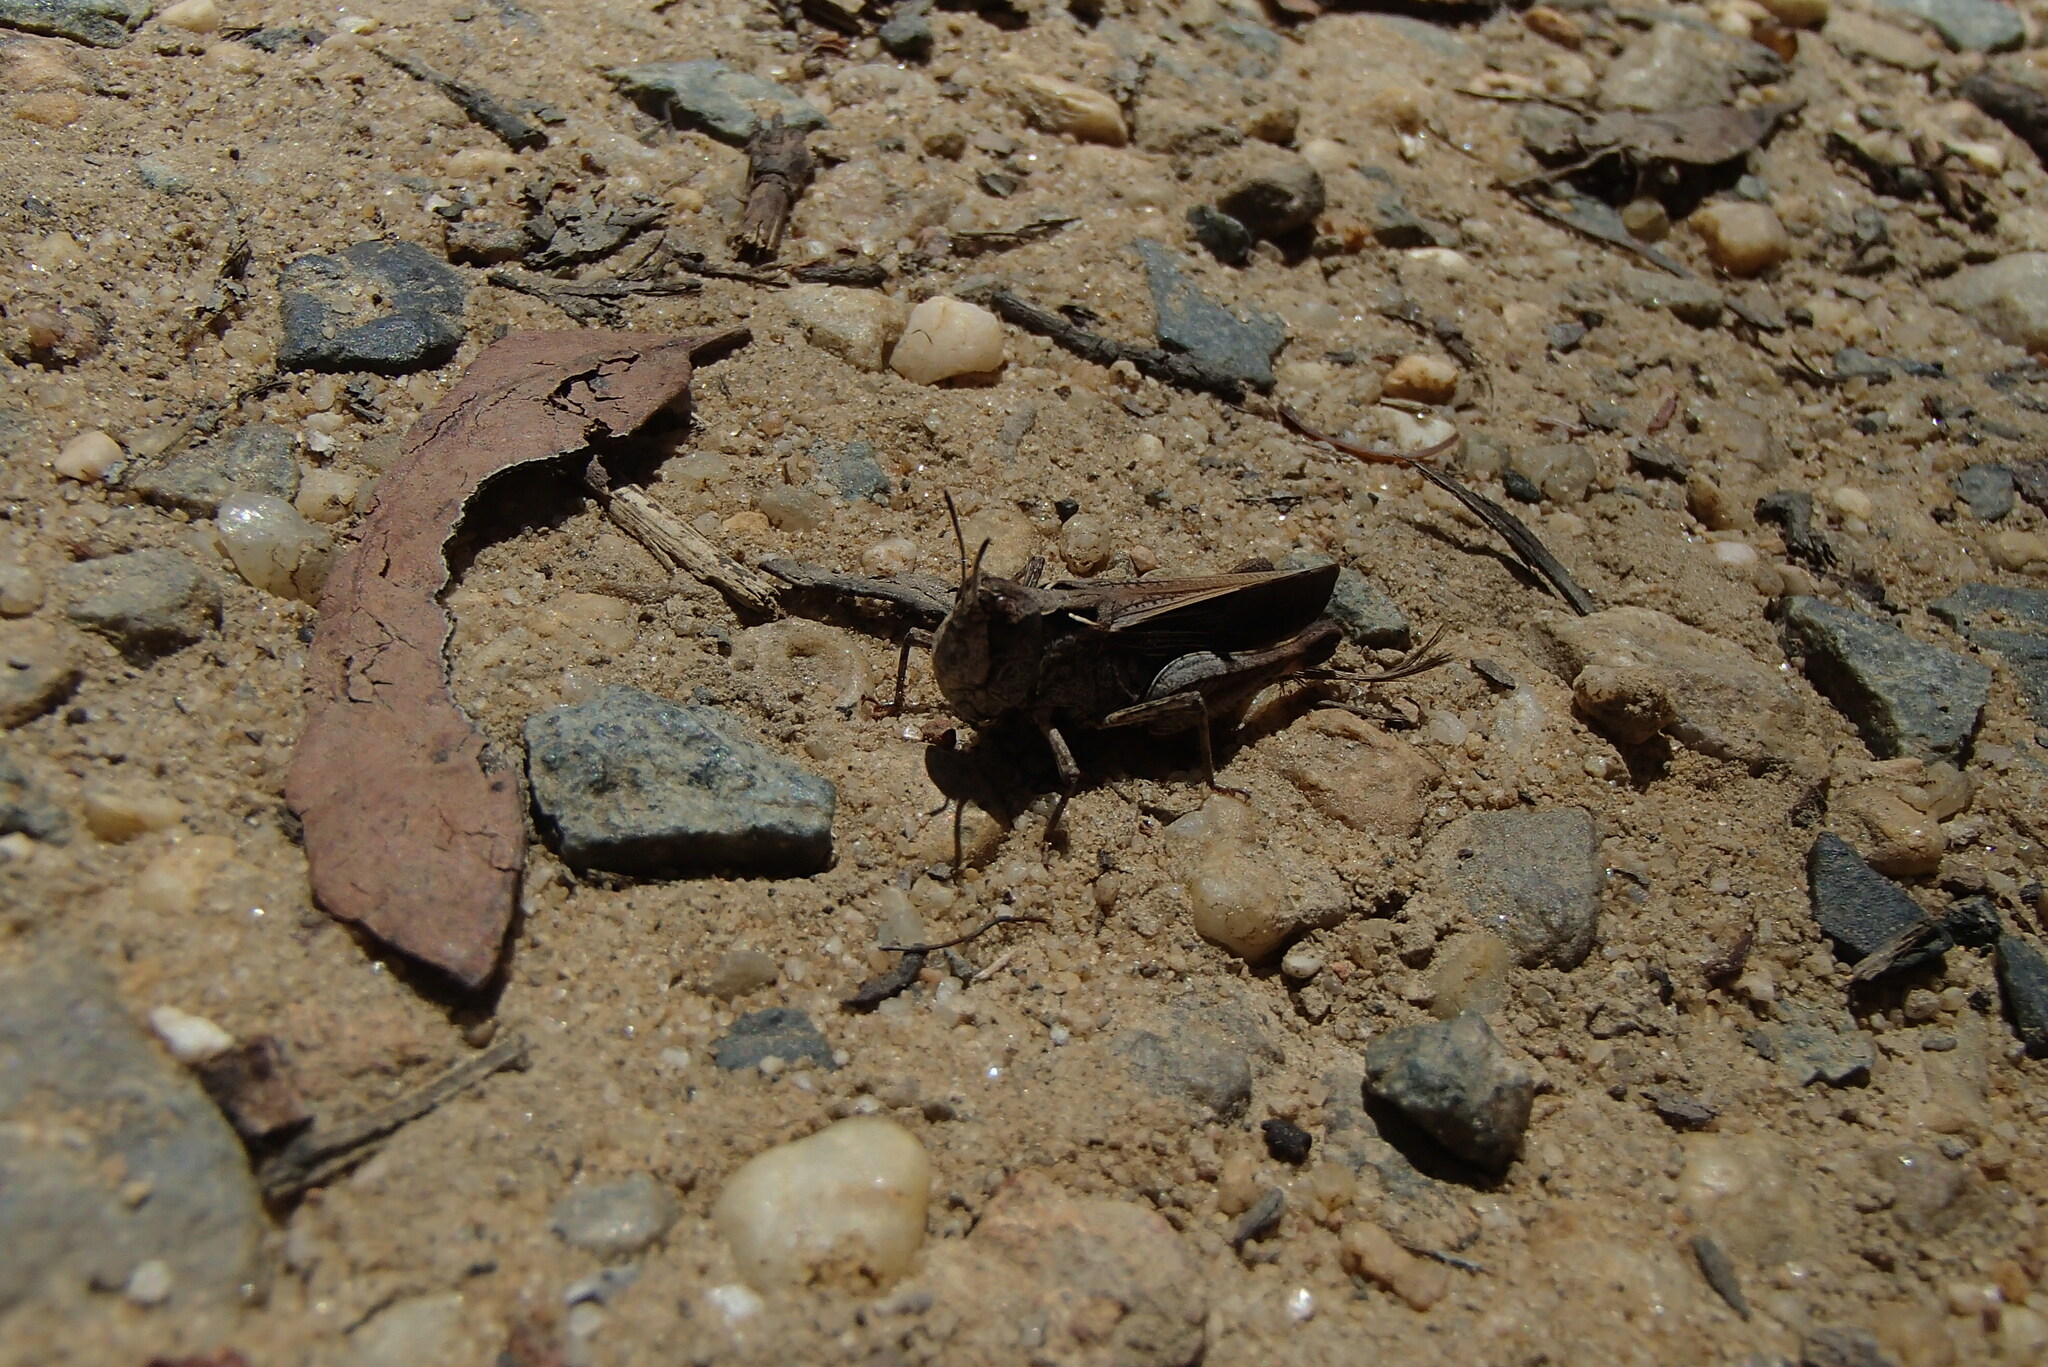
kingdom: Animalia
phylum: Arthropoda
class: Insecta
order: Orthoptera
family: Acrididae
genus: Cryptobothrus
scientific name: Cryptobothrus chrysophorus
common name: Golden bandwing
